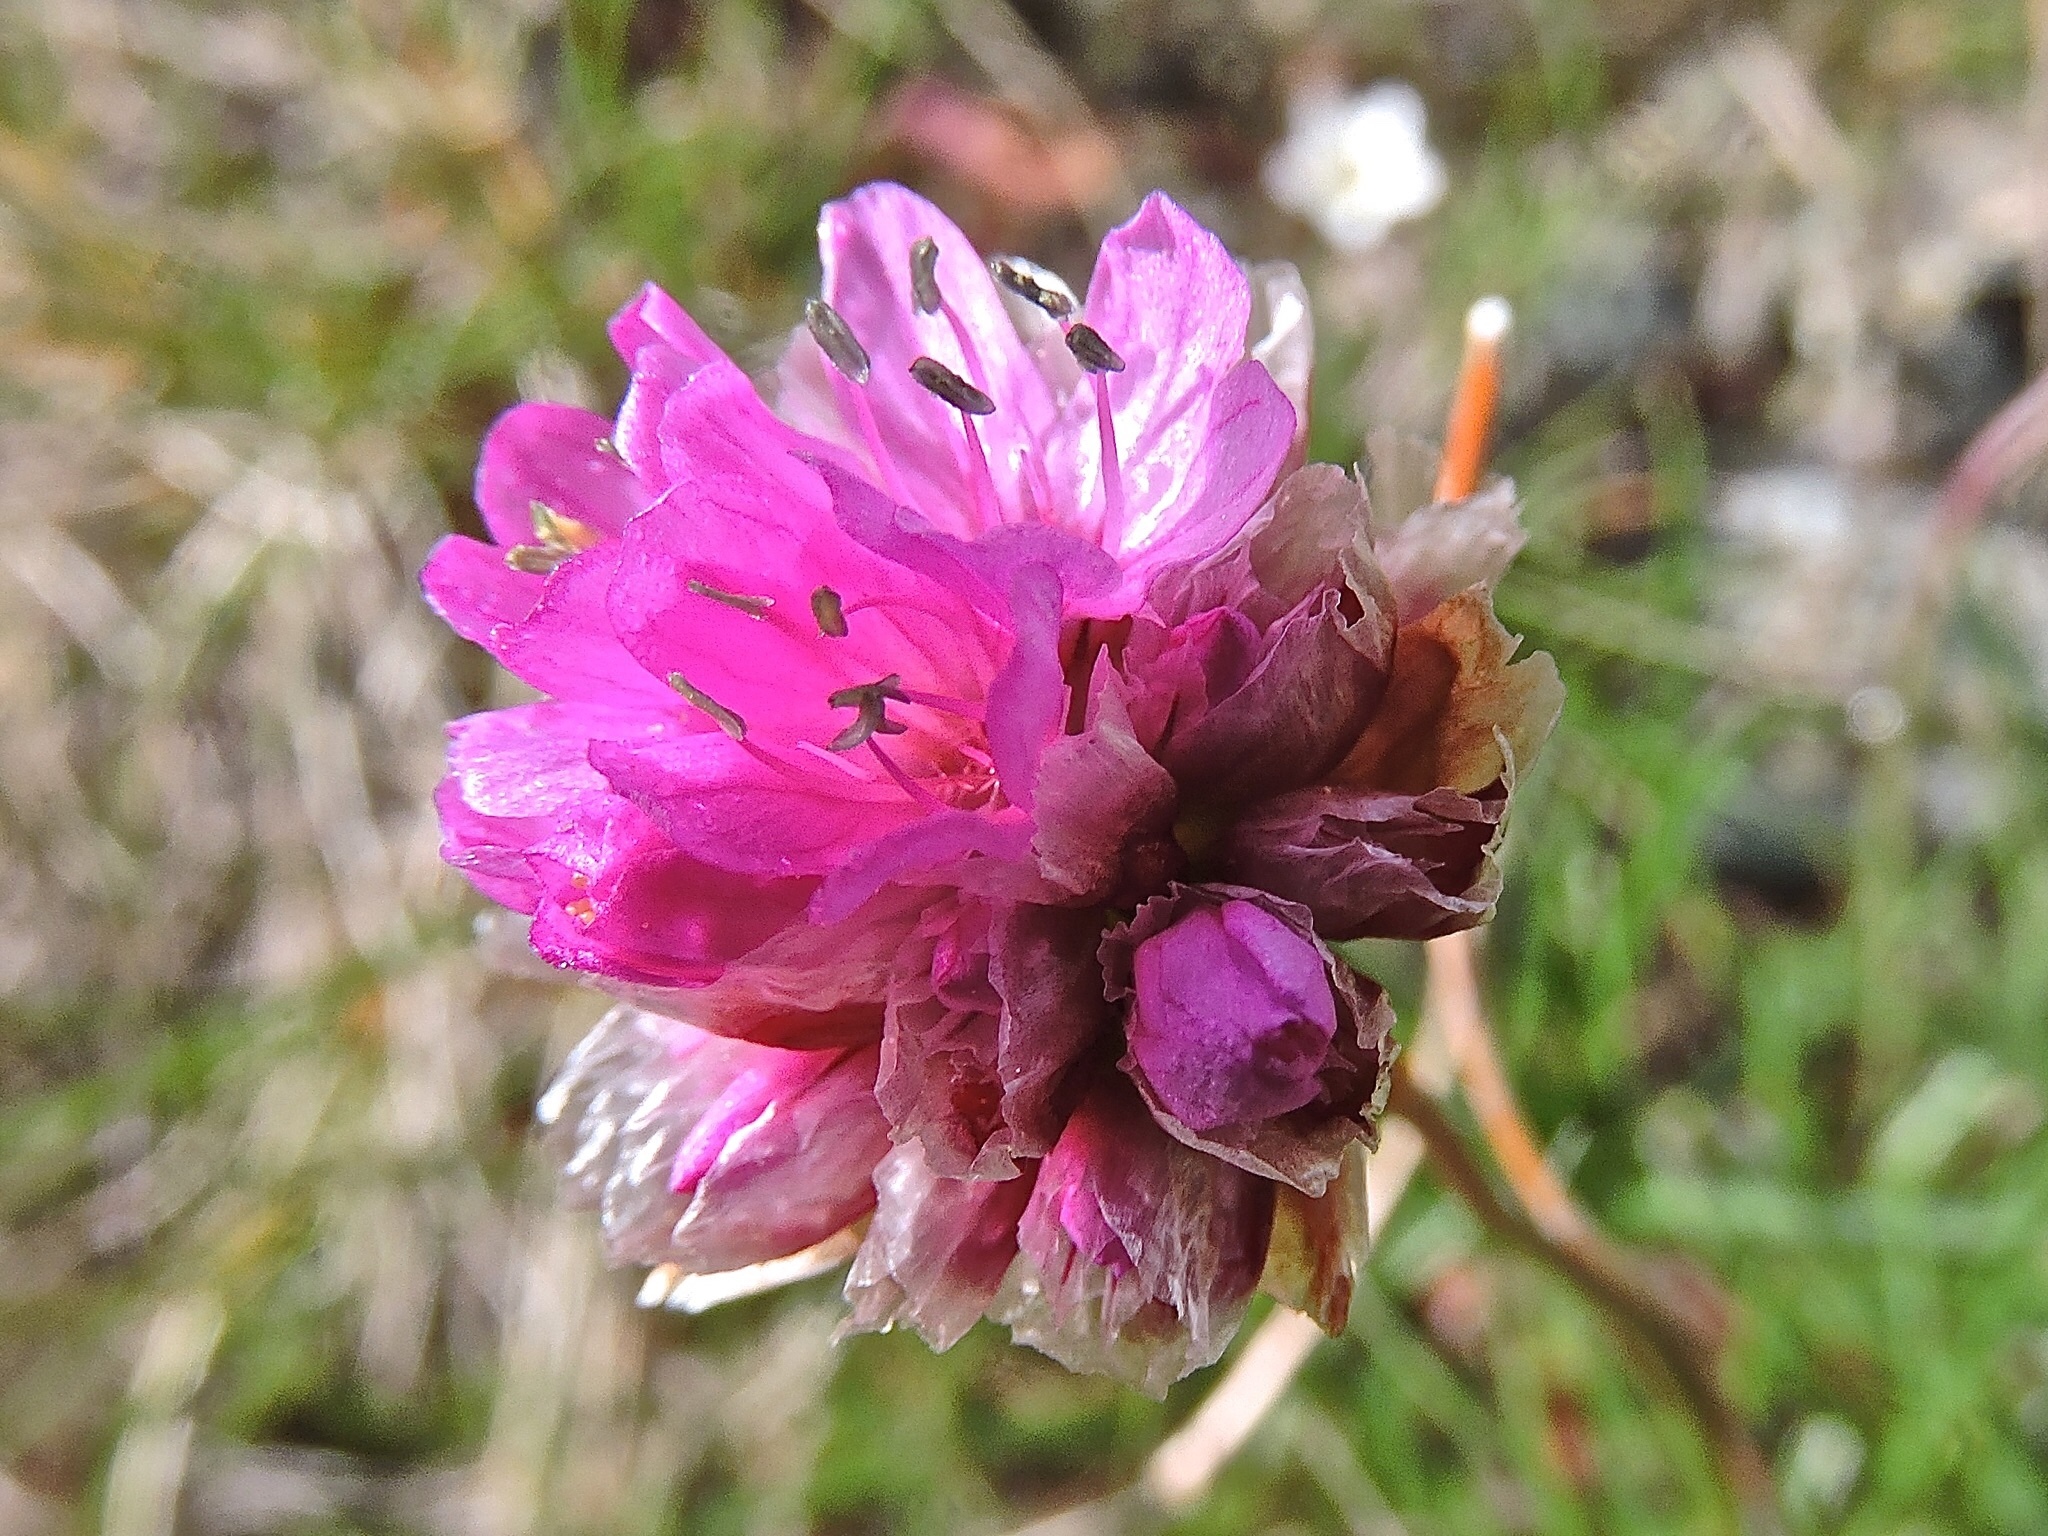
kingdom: Plantae
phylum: Tracheophyta
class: Magnoliopsida
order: Caryophyllales
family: Plumbaginaceae
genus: Armeria
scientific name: Armeria alpina
